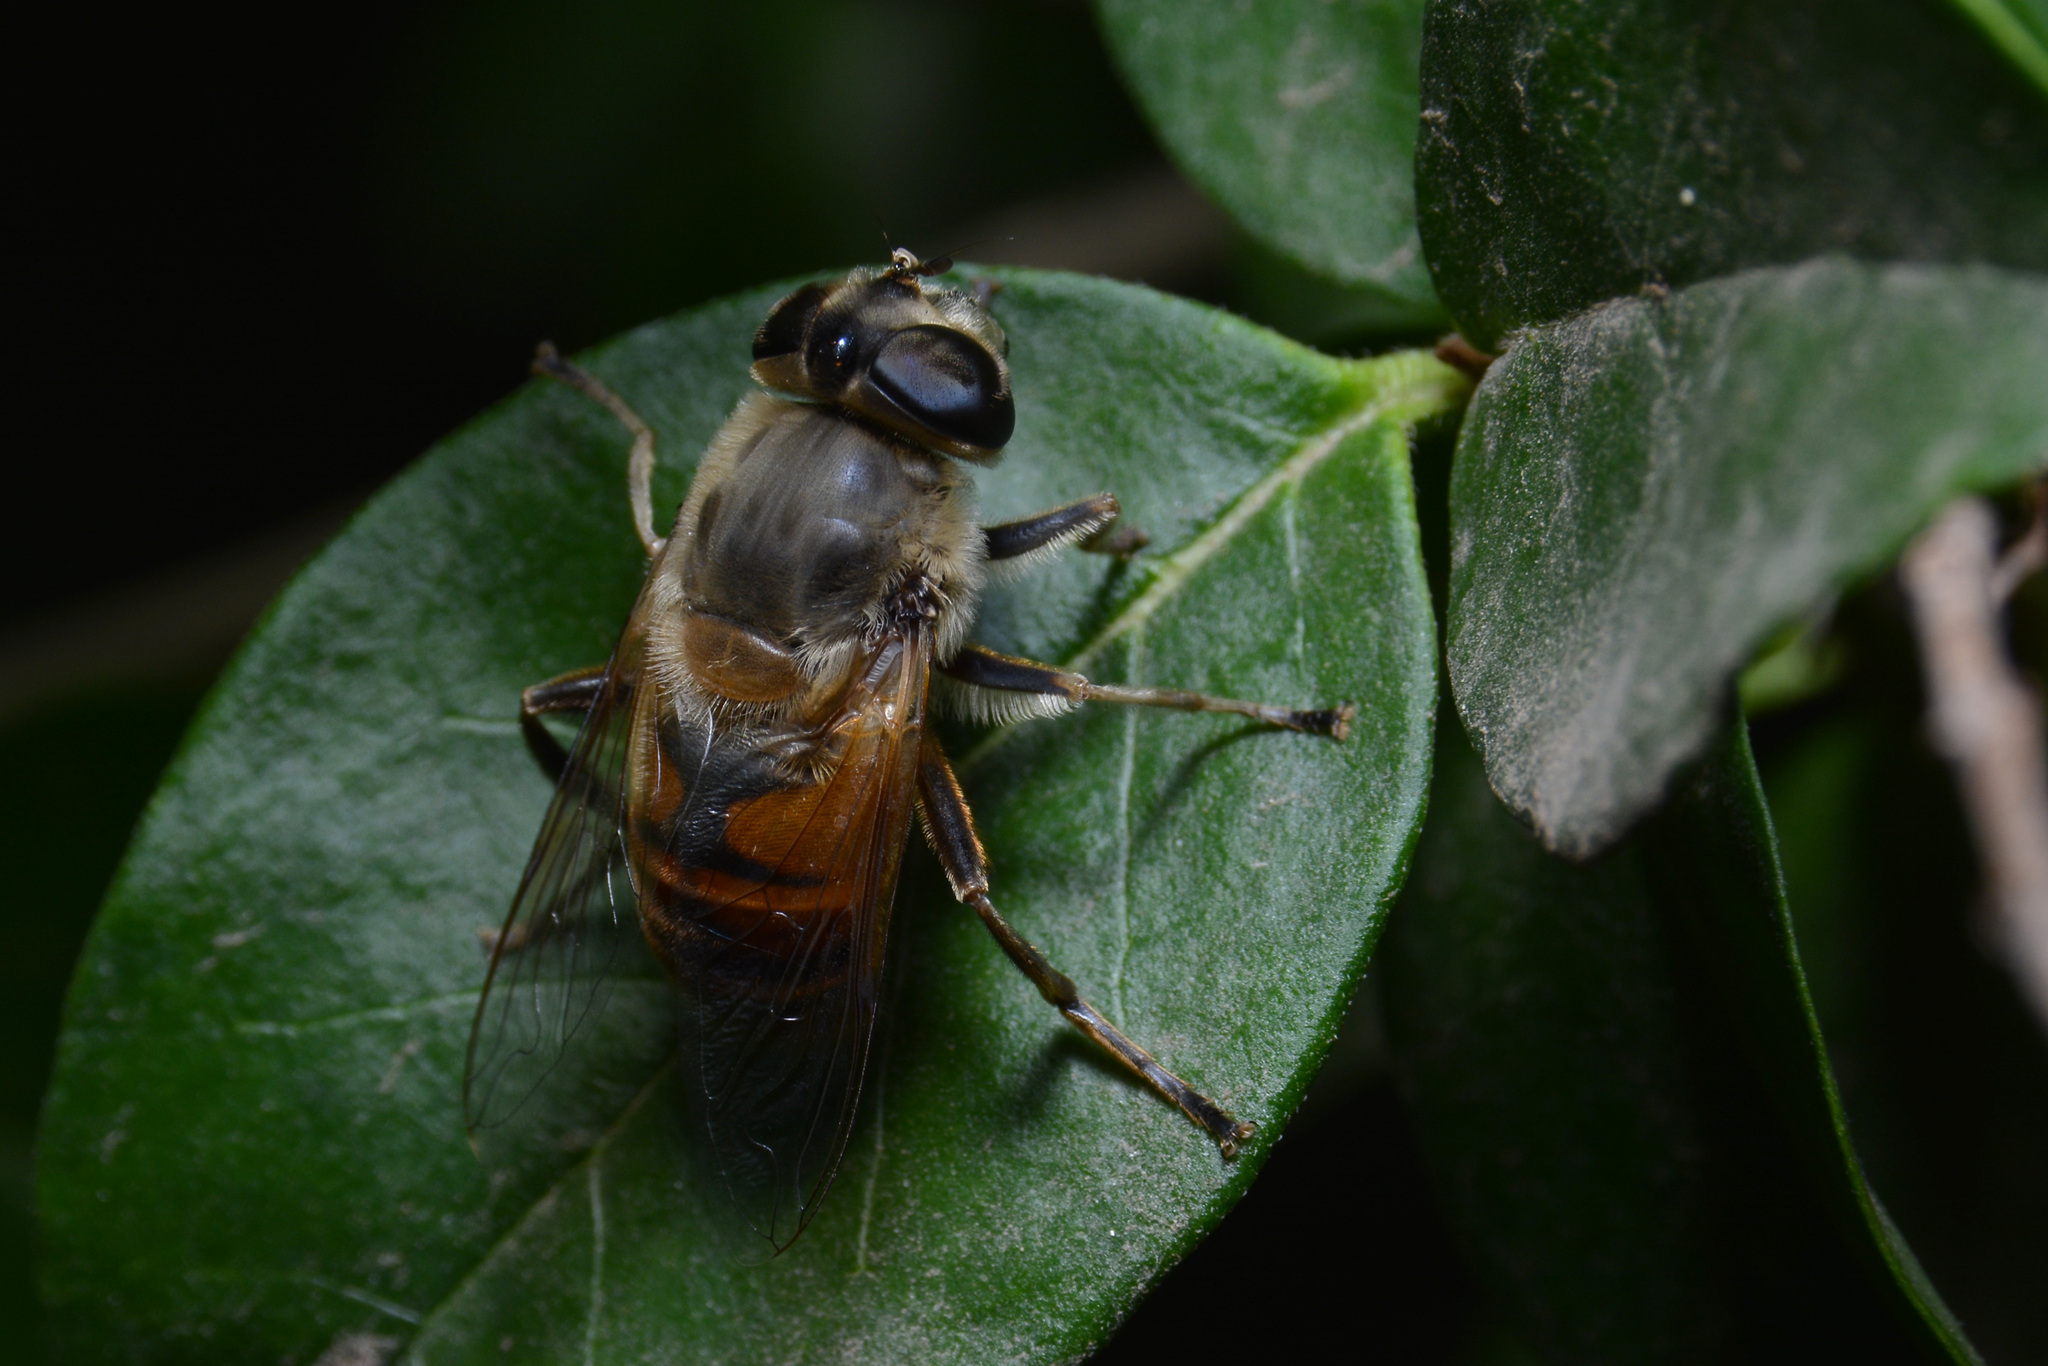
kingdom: Animalia
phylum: Arthropoda
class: Insecta
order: Diptera
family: Syrphidae
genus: Eristalis
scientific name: Eristalis tenax
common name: Drone fly
